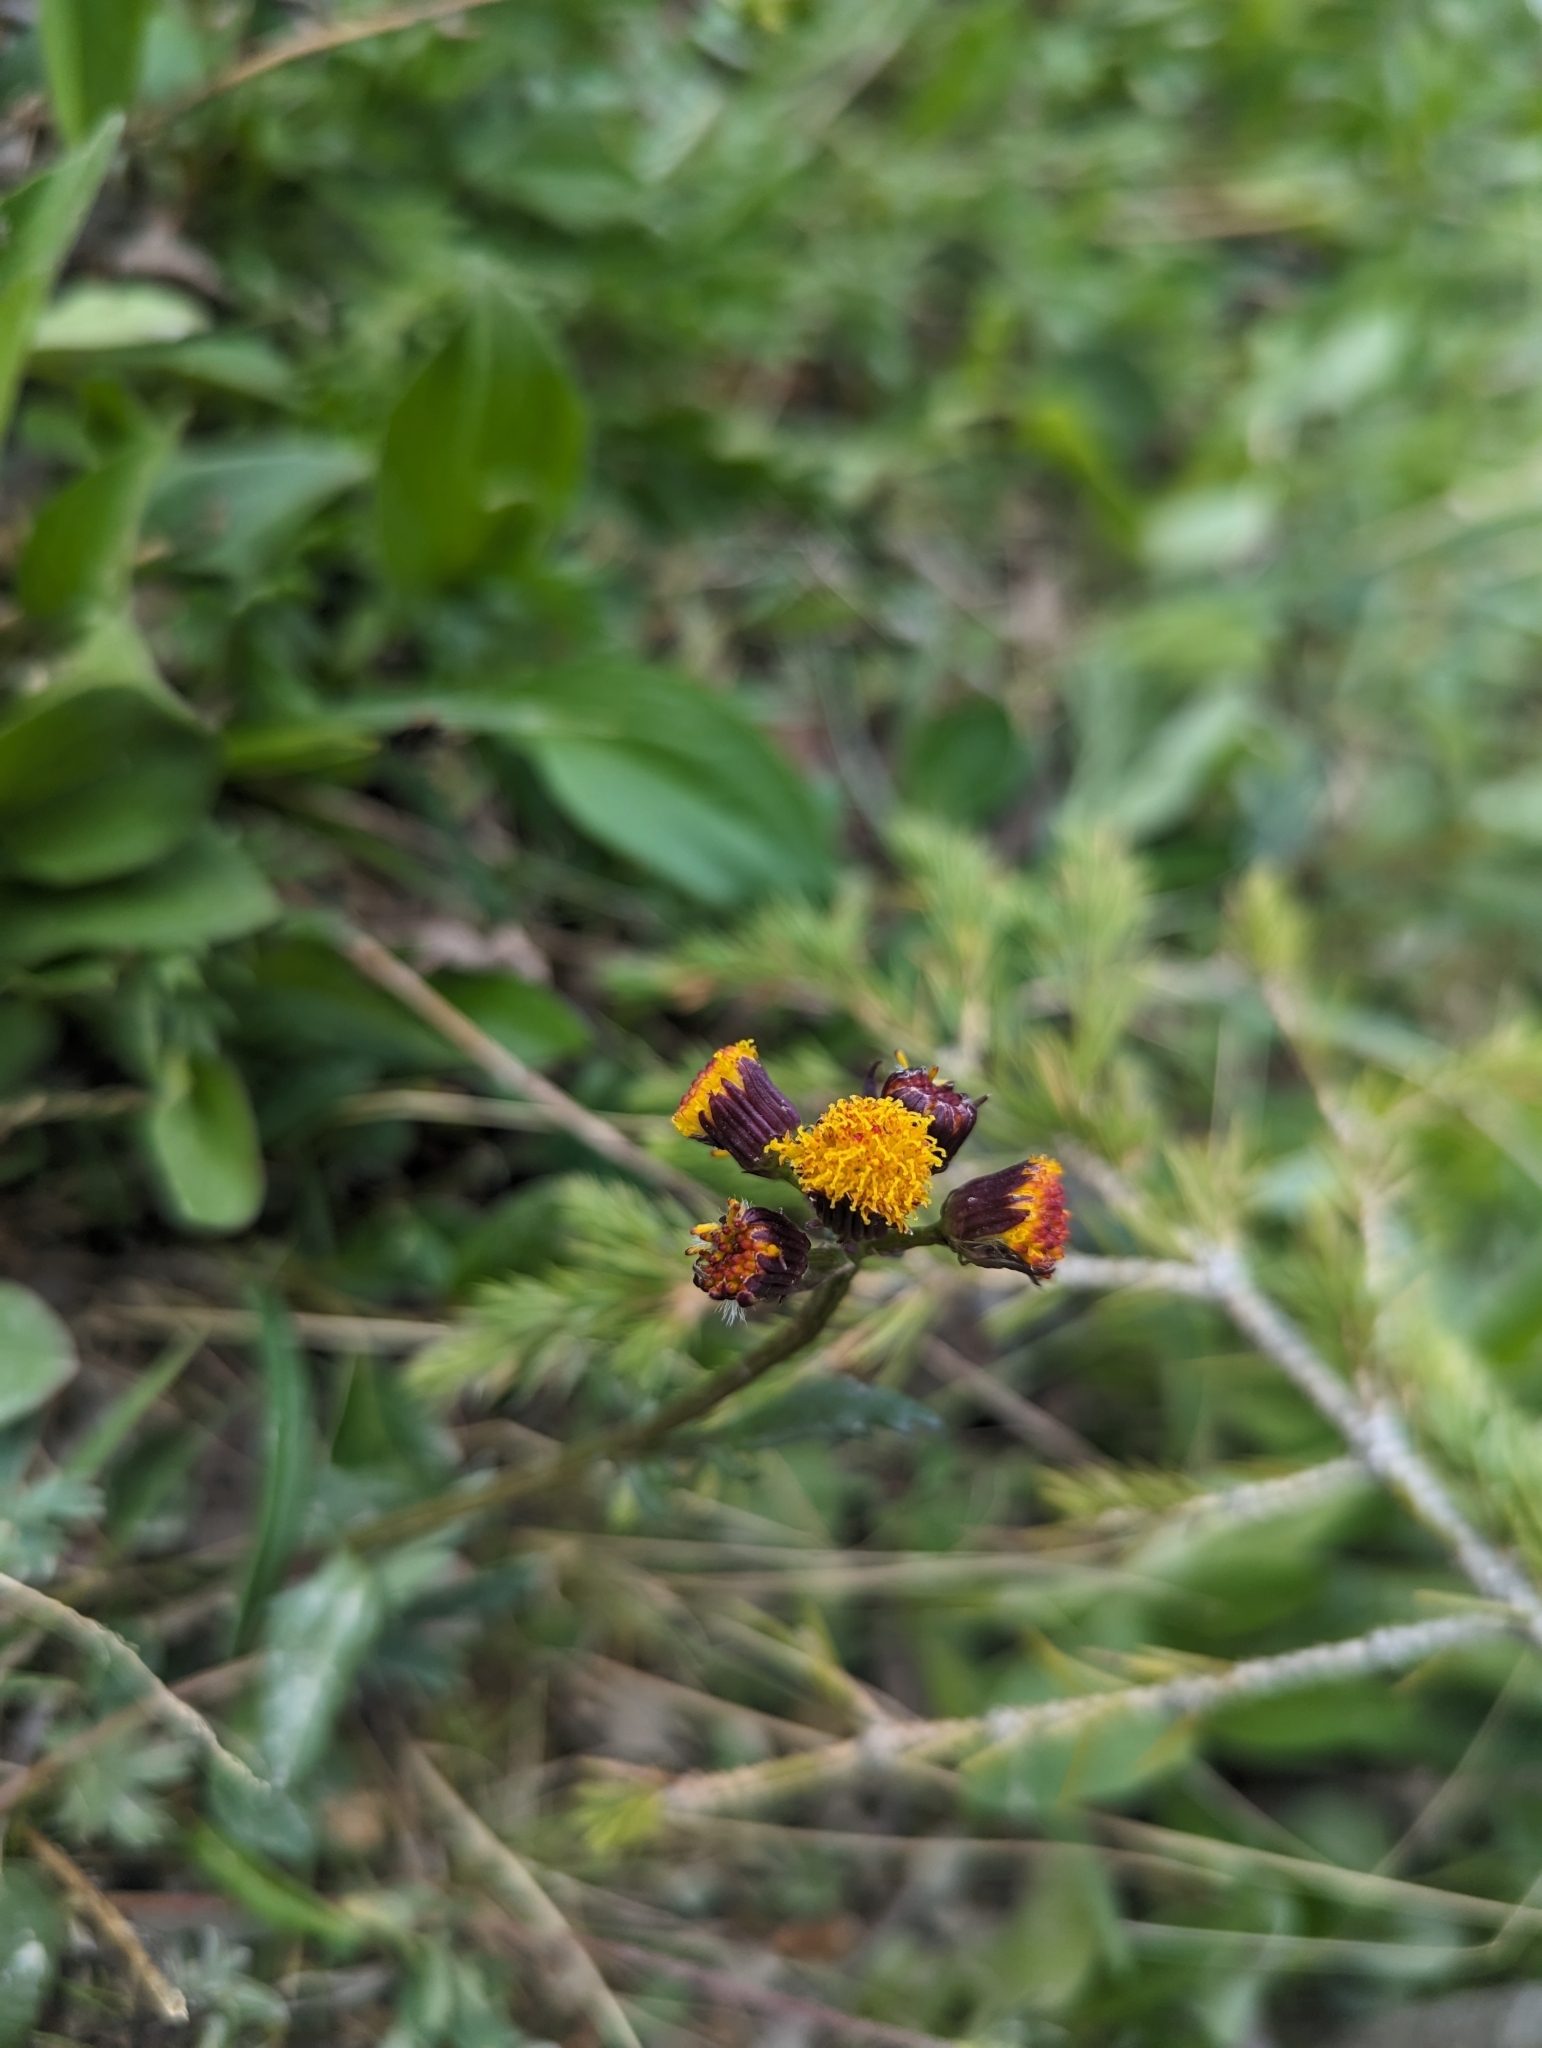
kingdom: Plantae
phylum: Tracheophyta
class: Magnoliopsida
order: Asterales
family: Asteraceae
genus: Packera
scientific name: Packera pauciflora
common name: Alpine groundsel
